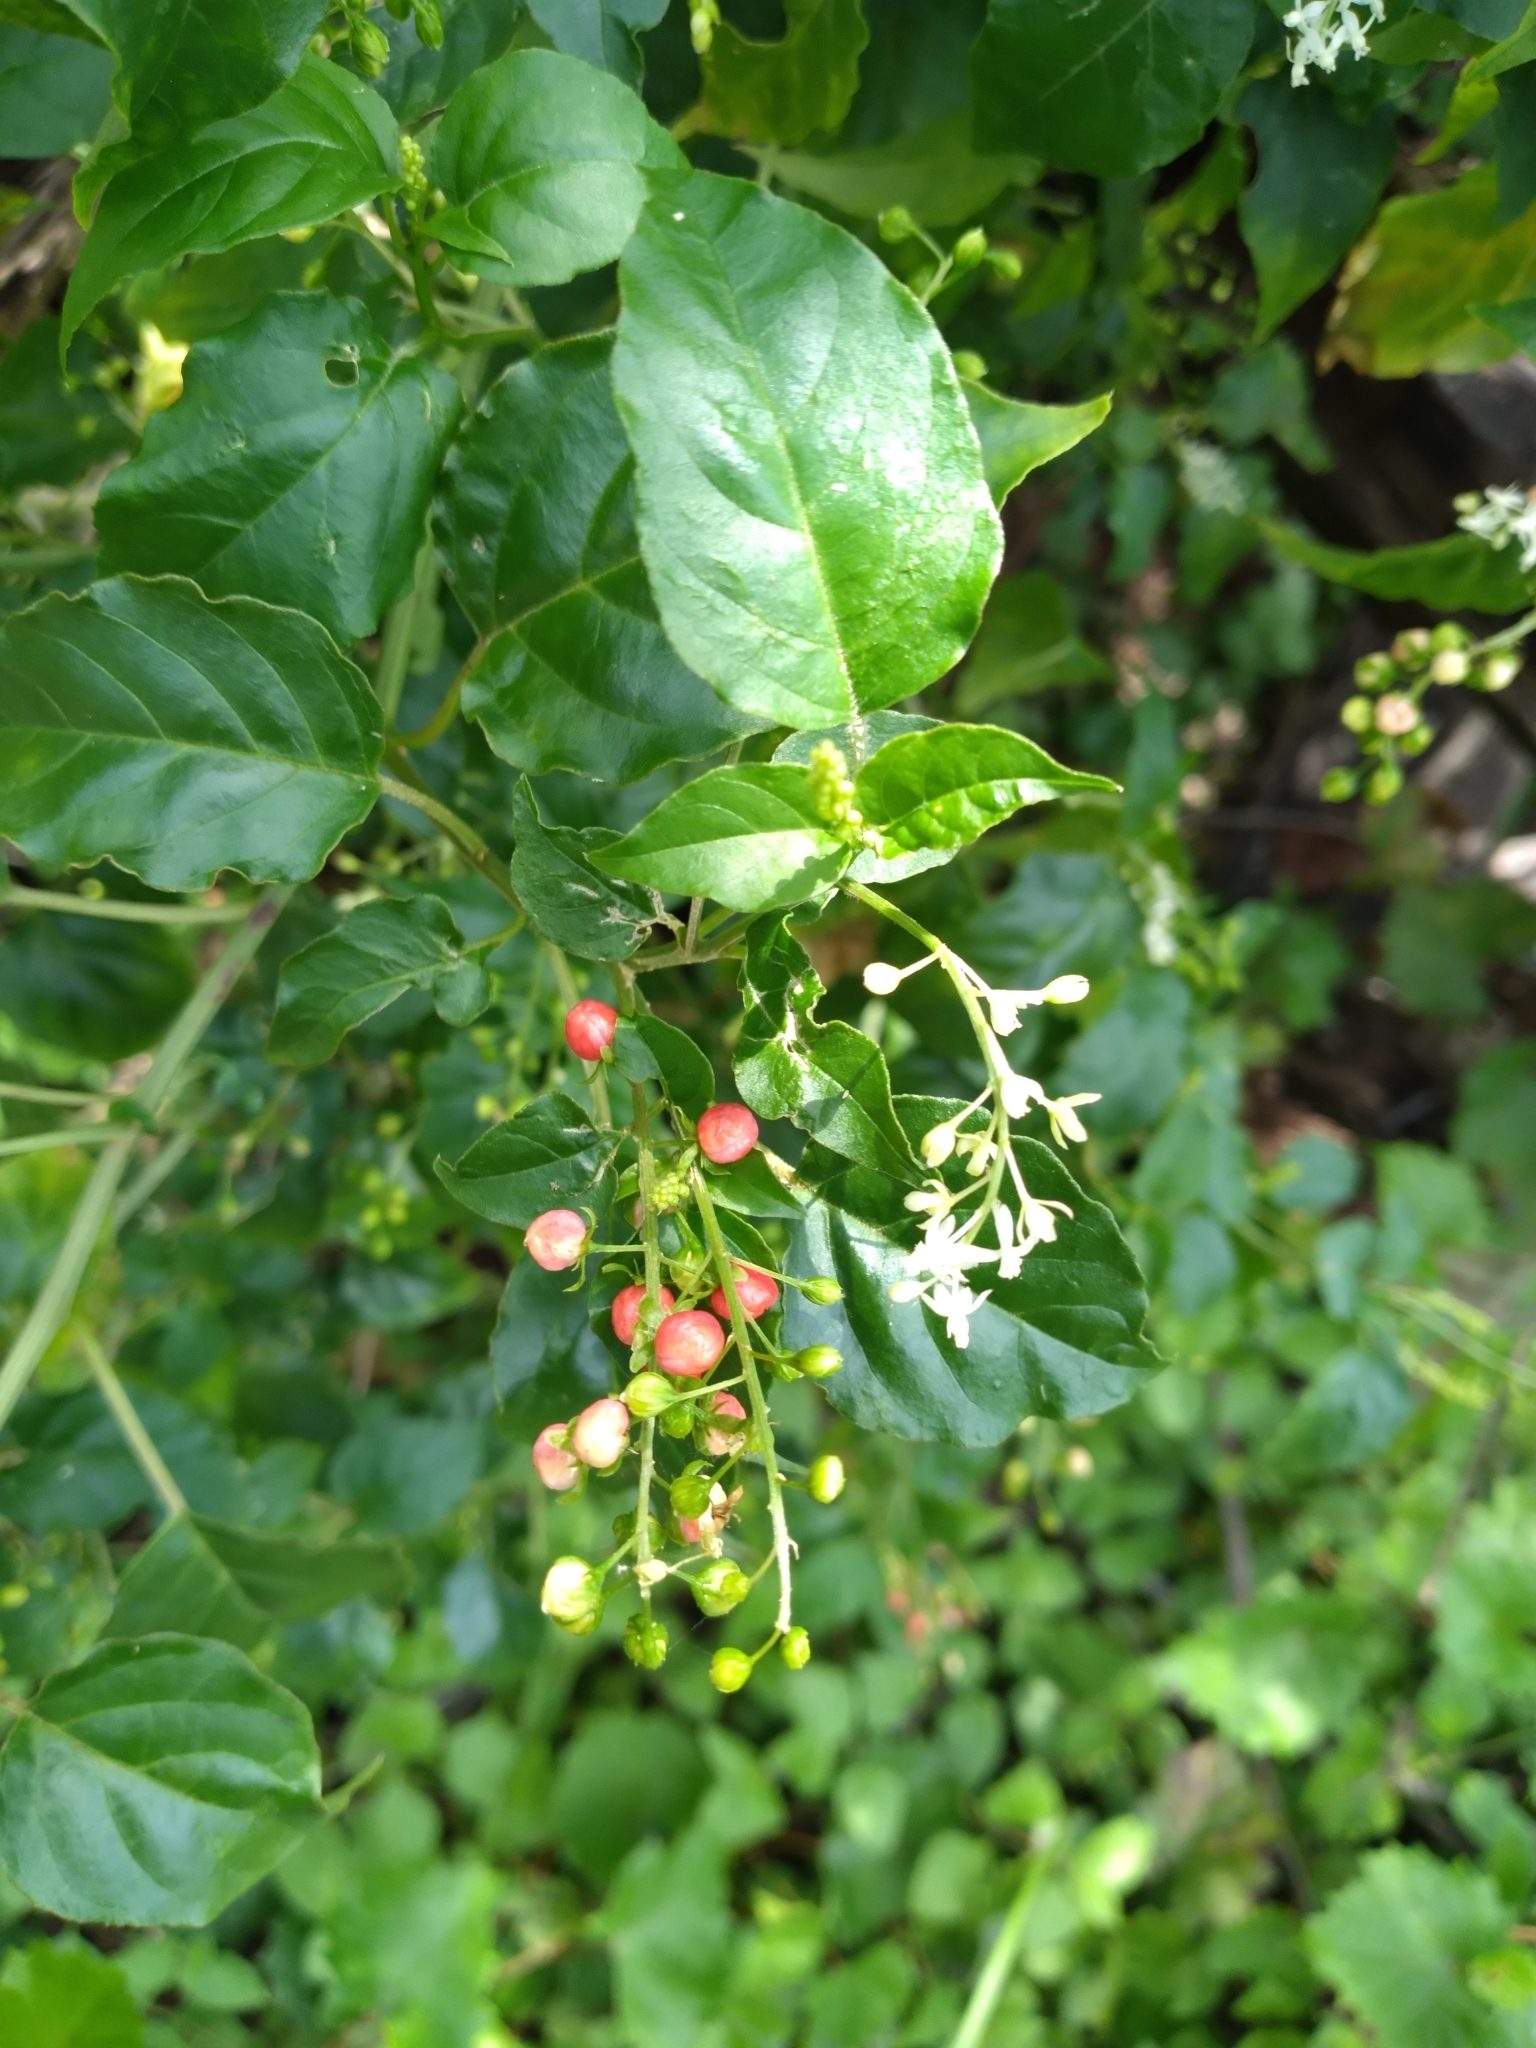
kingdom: Plantae
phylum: Tracheophyta
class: Magnoliopsida
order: Caryophyllales
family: Phytolaccaceae
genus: Rivina
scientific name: Rivina humilis
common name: Rougeplant
